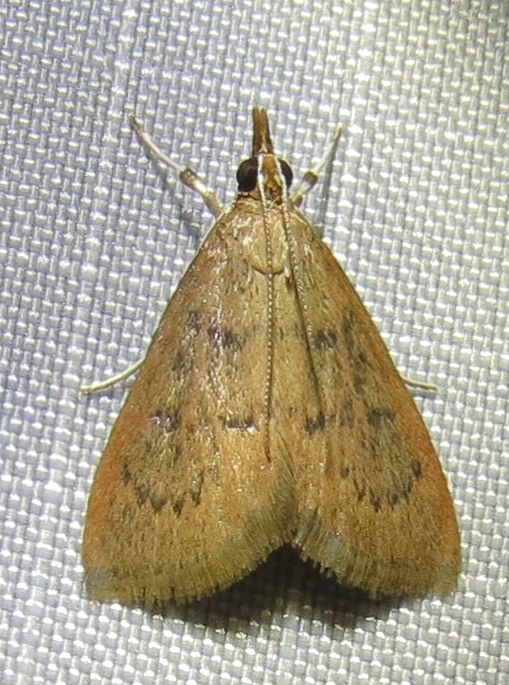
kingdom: Animalia
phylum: Arthropoda
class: Insecta
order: Lepidoptera
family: Crambidae
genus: Udea
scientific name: Udea rubigalis
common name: Celery leaftier moth
